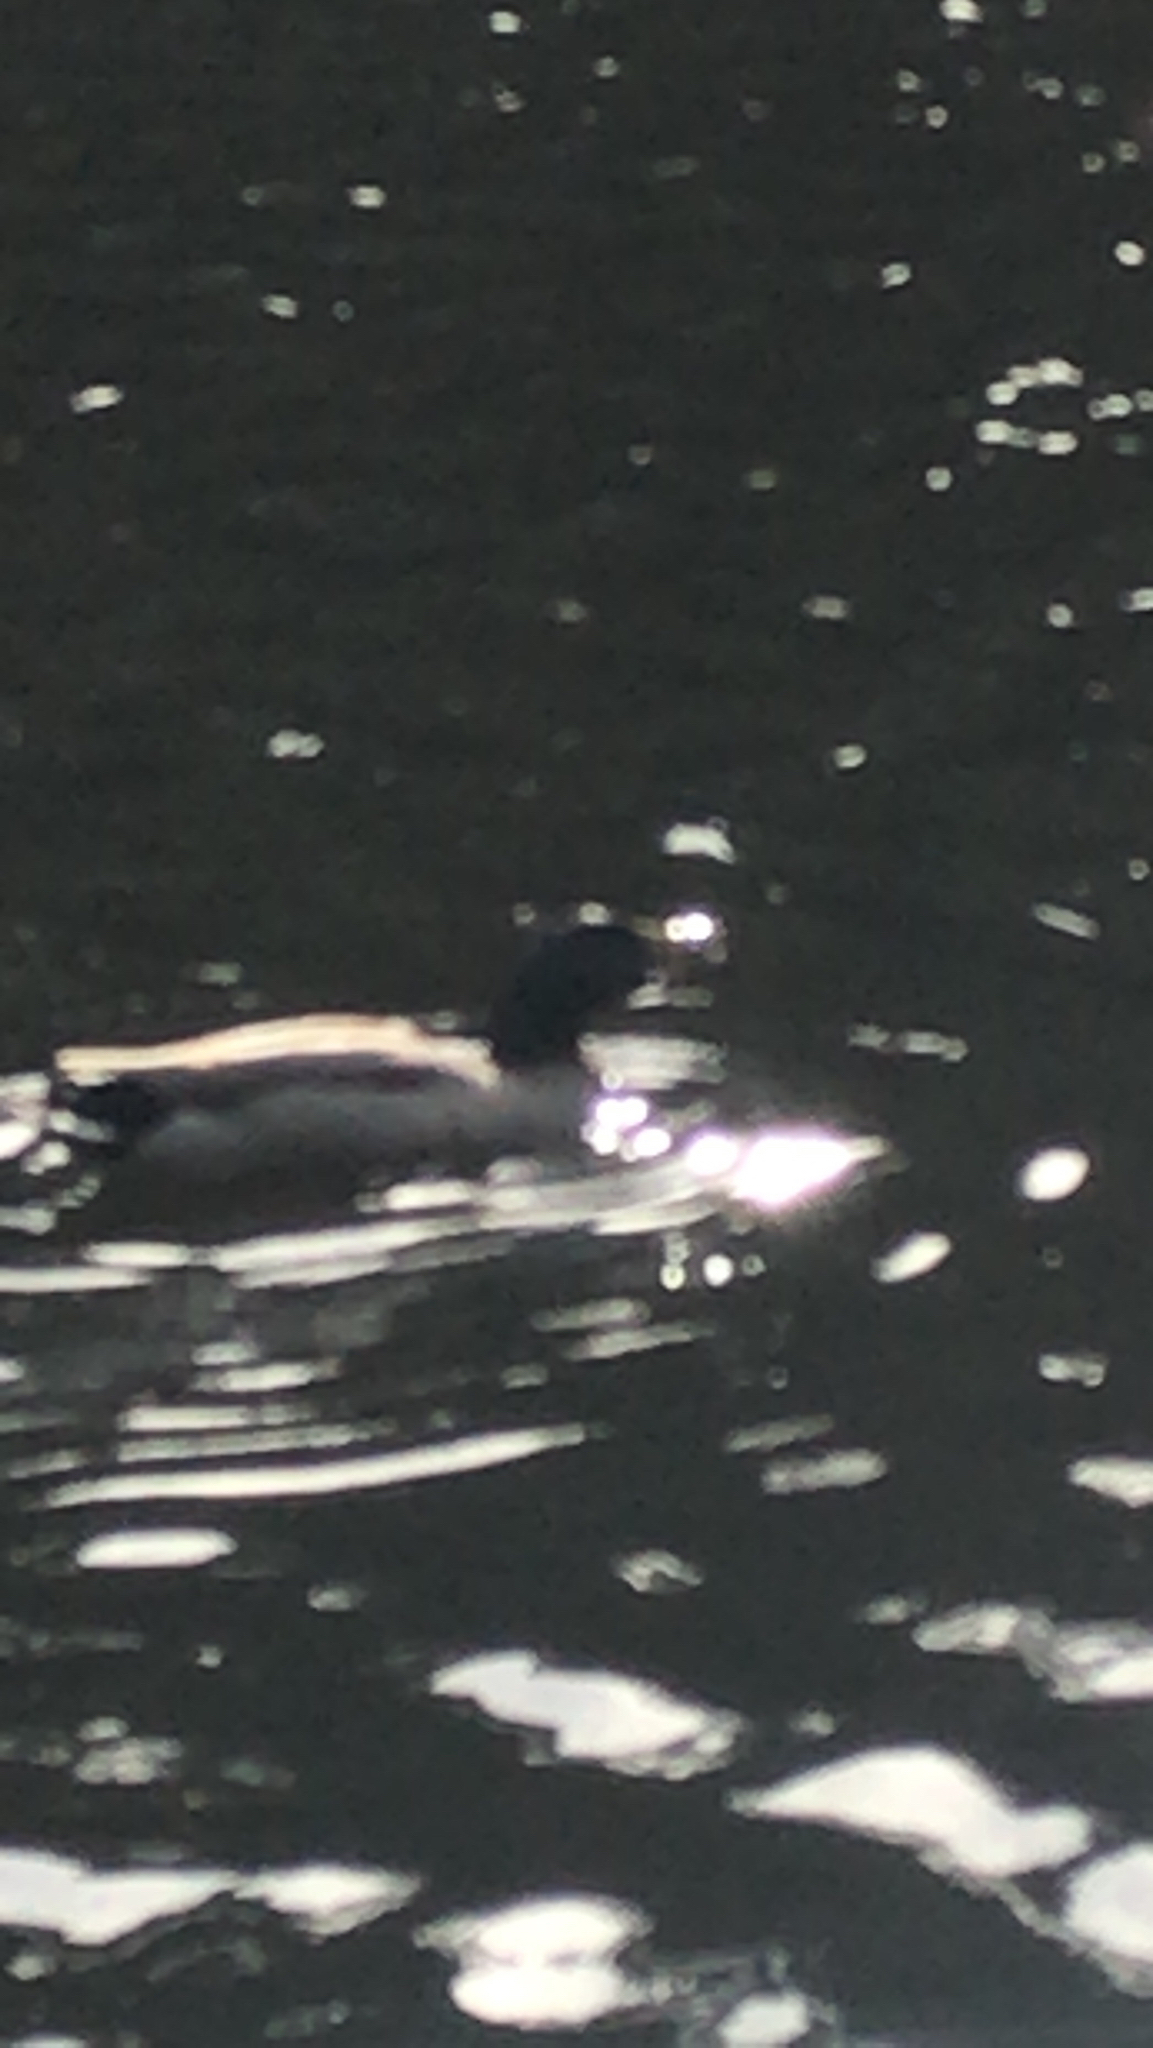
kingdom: Animalia
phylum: Chordata
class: Aves
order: Anseriformes
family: Anatidae
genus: Anas
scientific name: Anas platyrhynchos
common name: Mallard
